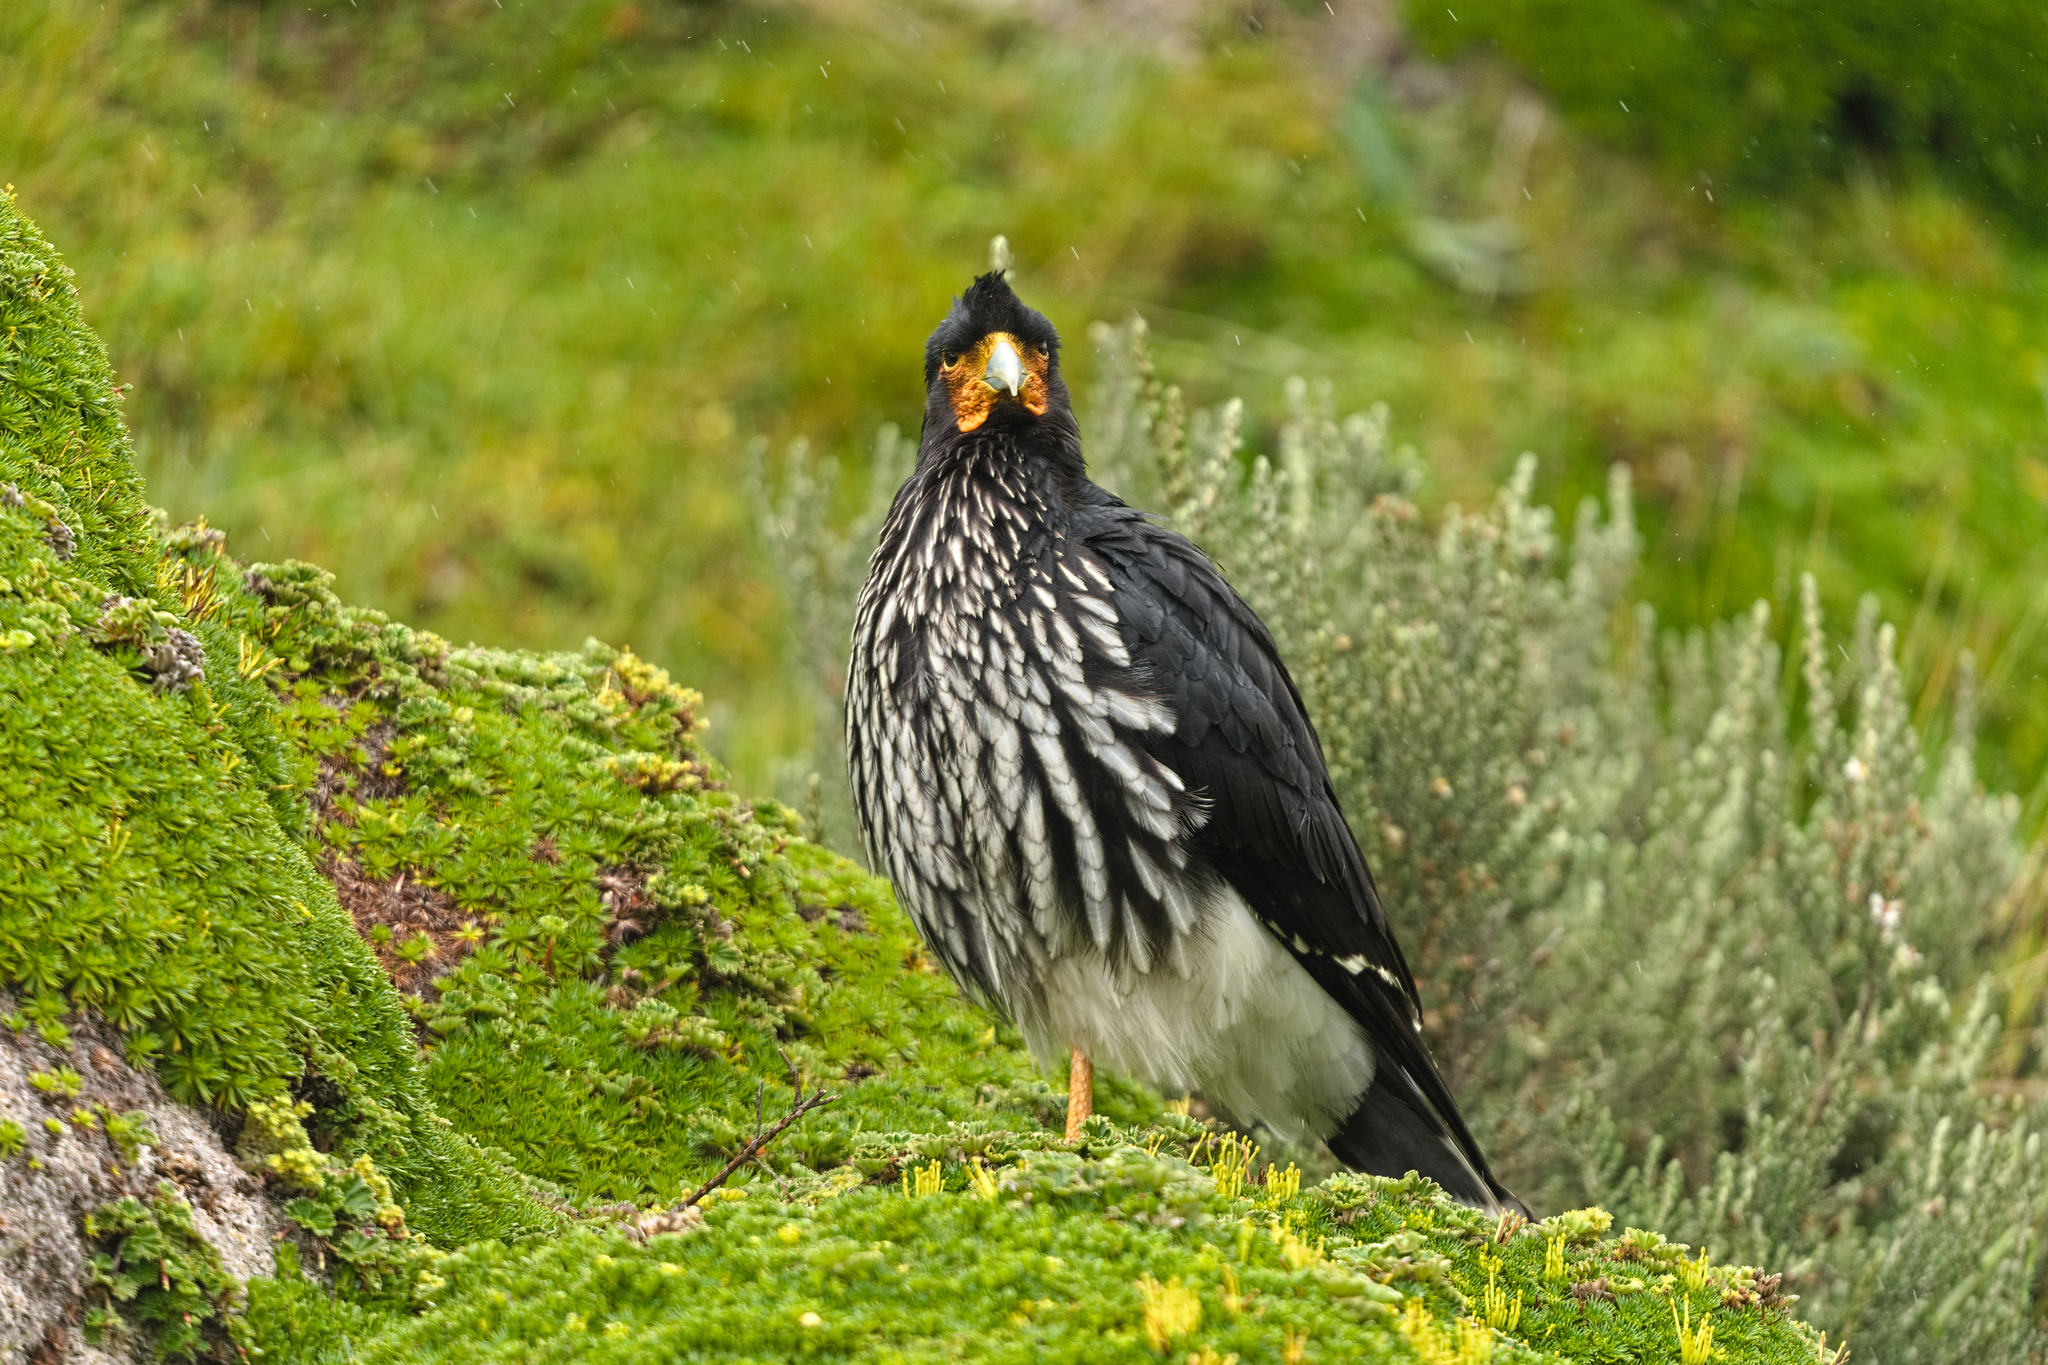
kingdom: Animalia
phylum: Chordata
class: Aves
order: Falconiformes
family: Falconidae
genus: Daptrius
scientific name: Daptrius
